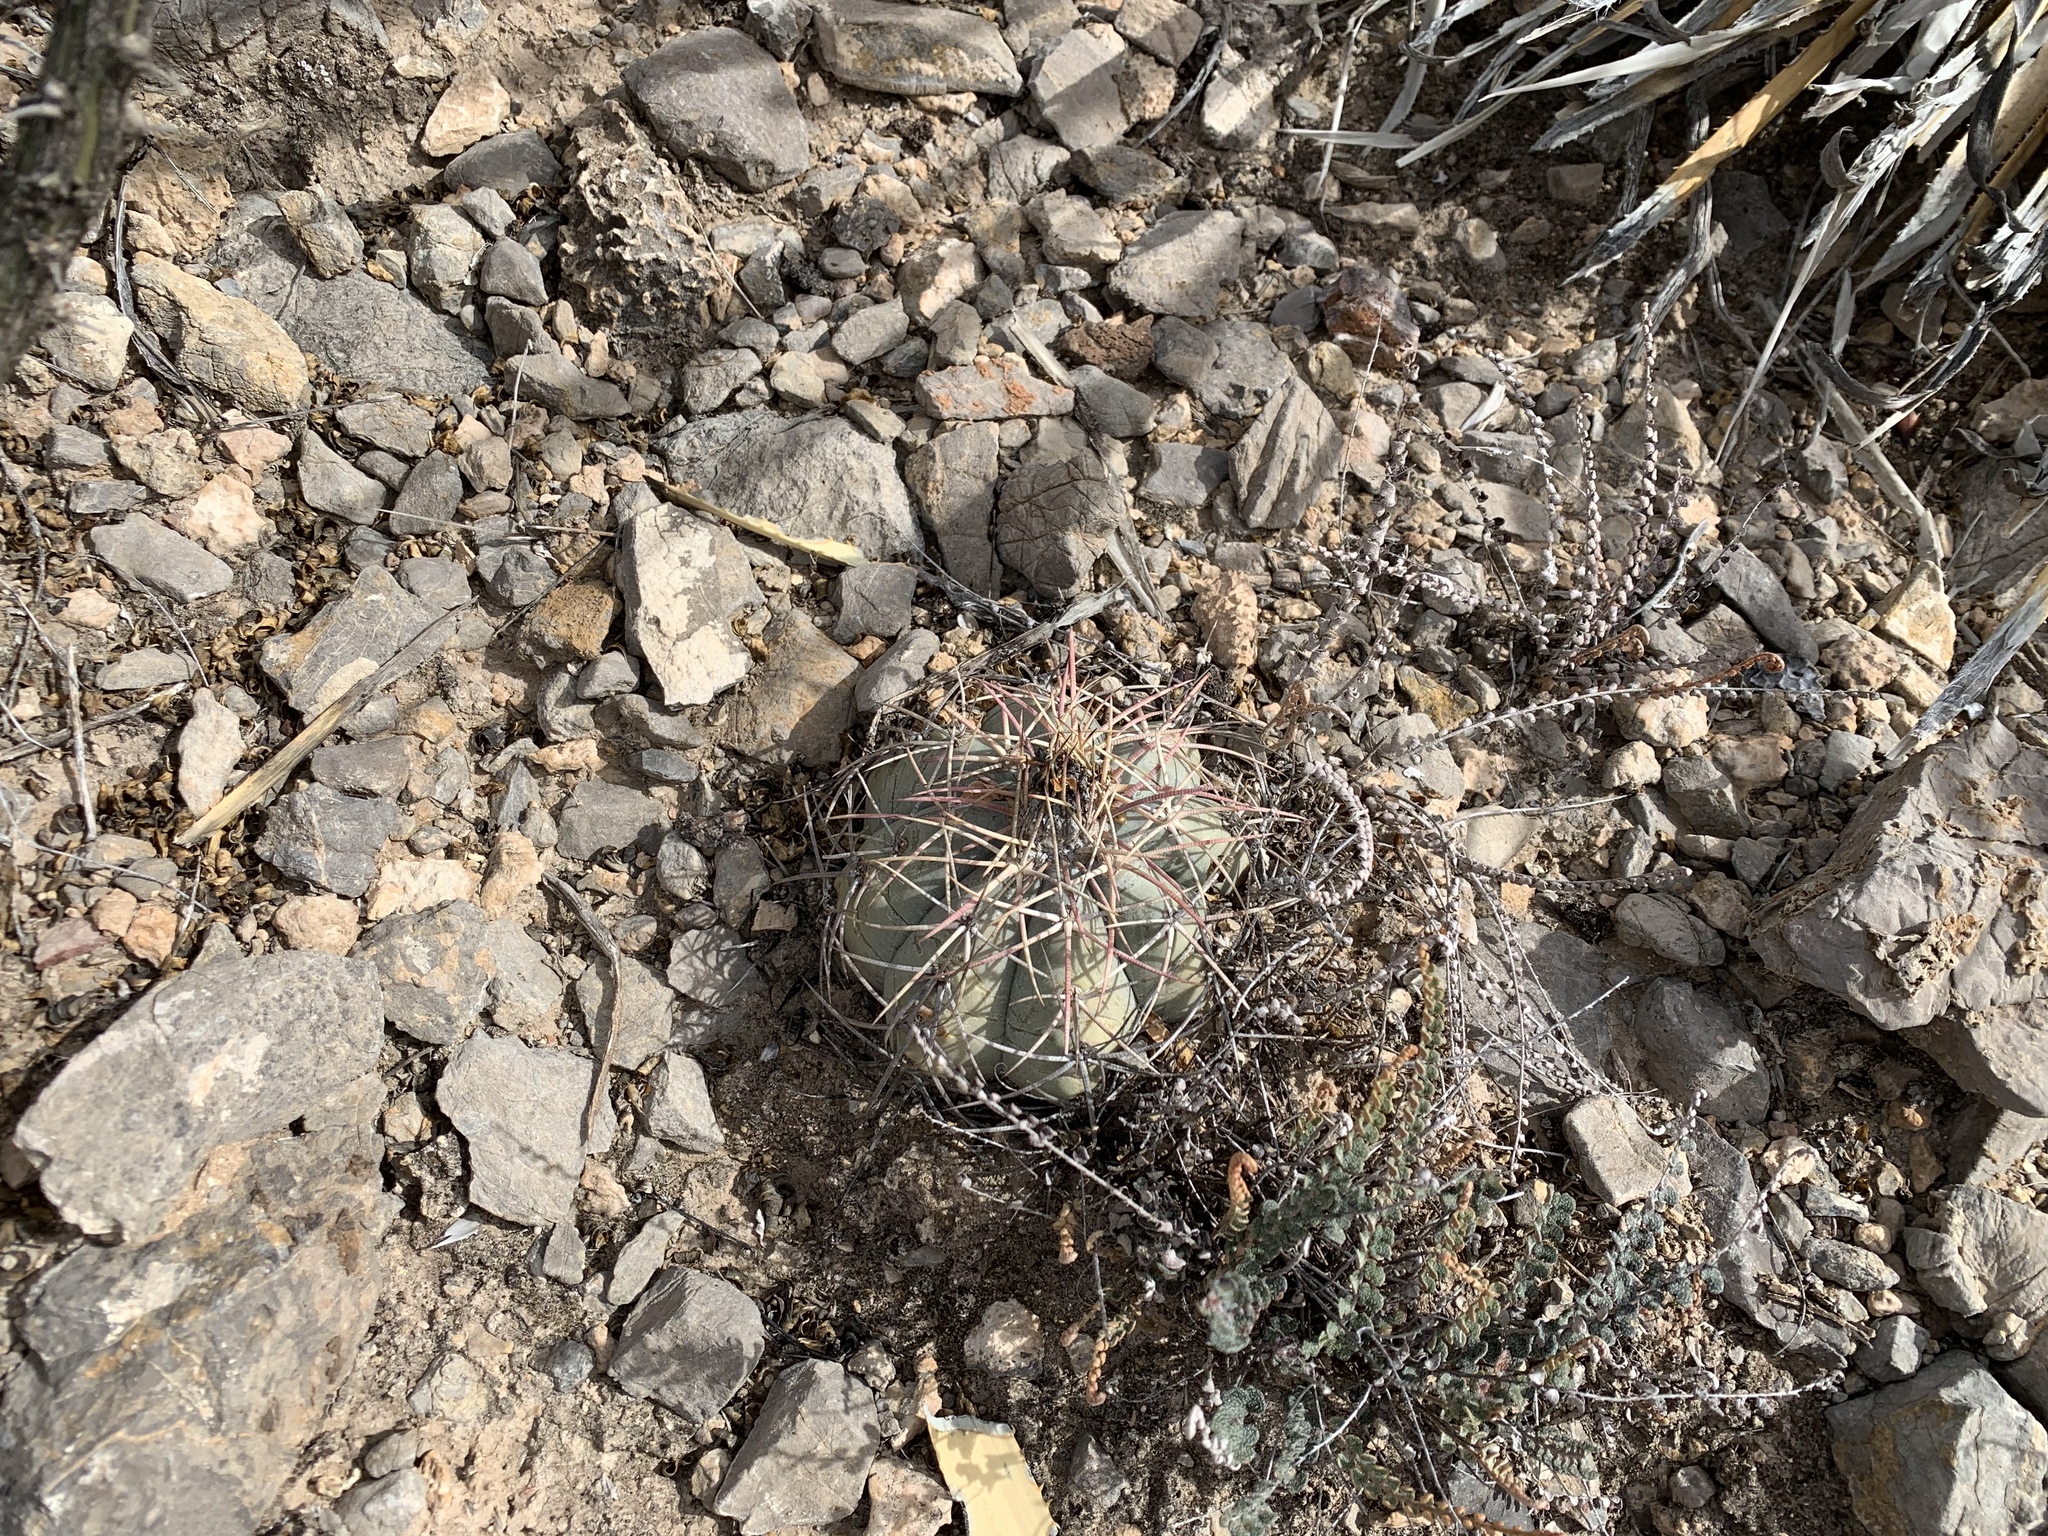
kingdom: Plantae
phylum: Tracheophyta
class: Magnoliopsida
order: Caryophyllales
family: Cactaceae
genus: Echinocactus
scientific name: Echinocactus horizonthalonius
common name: Devilshead
